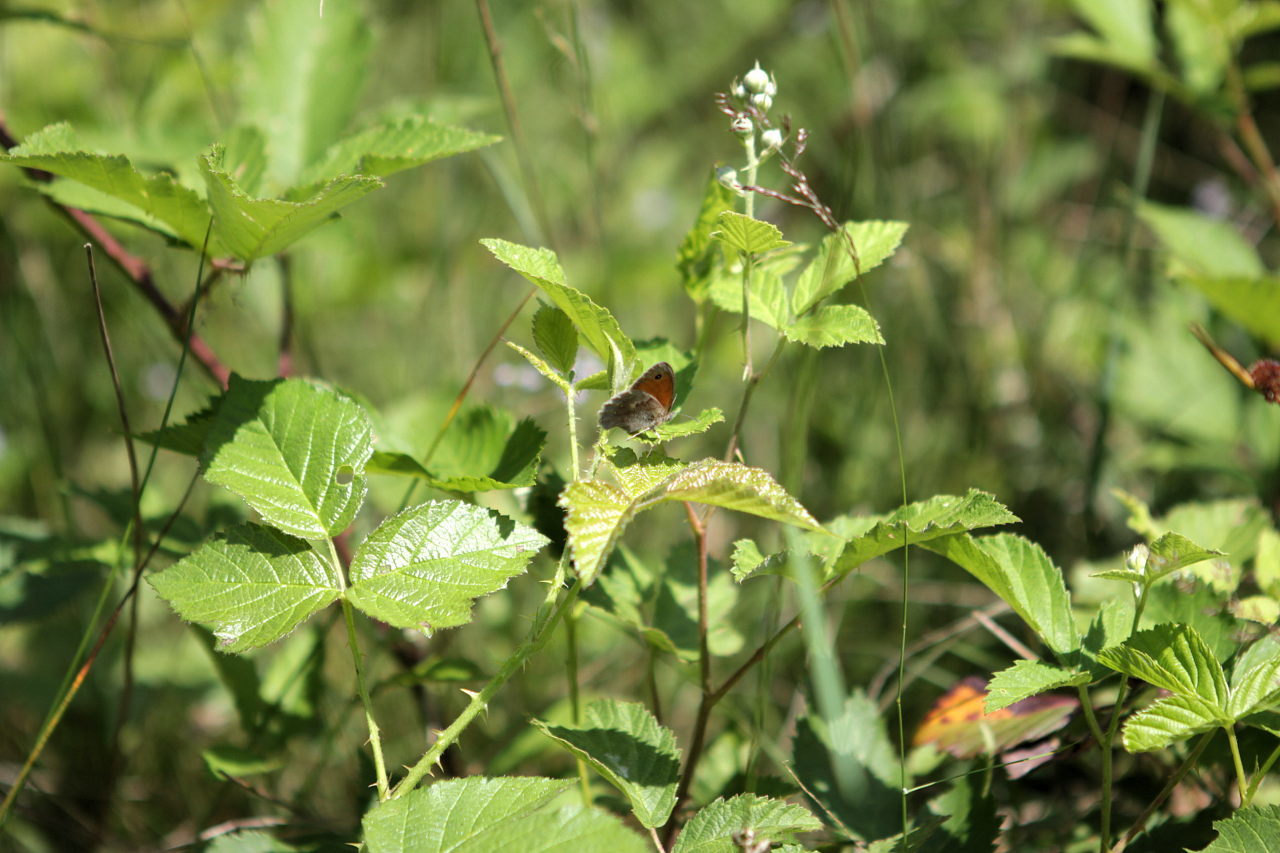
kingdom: Animalia
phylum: Arthropoda
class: Insecta
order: Lepidoptera
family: Nymphalidae
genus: Coenonympha
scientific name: Coenonympha pamphilus
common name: Small heath
